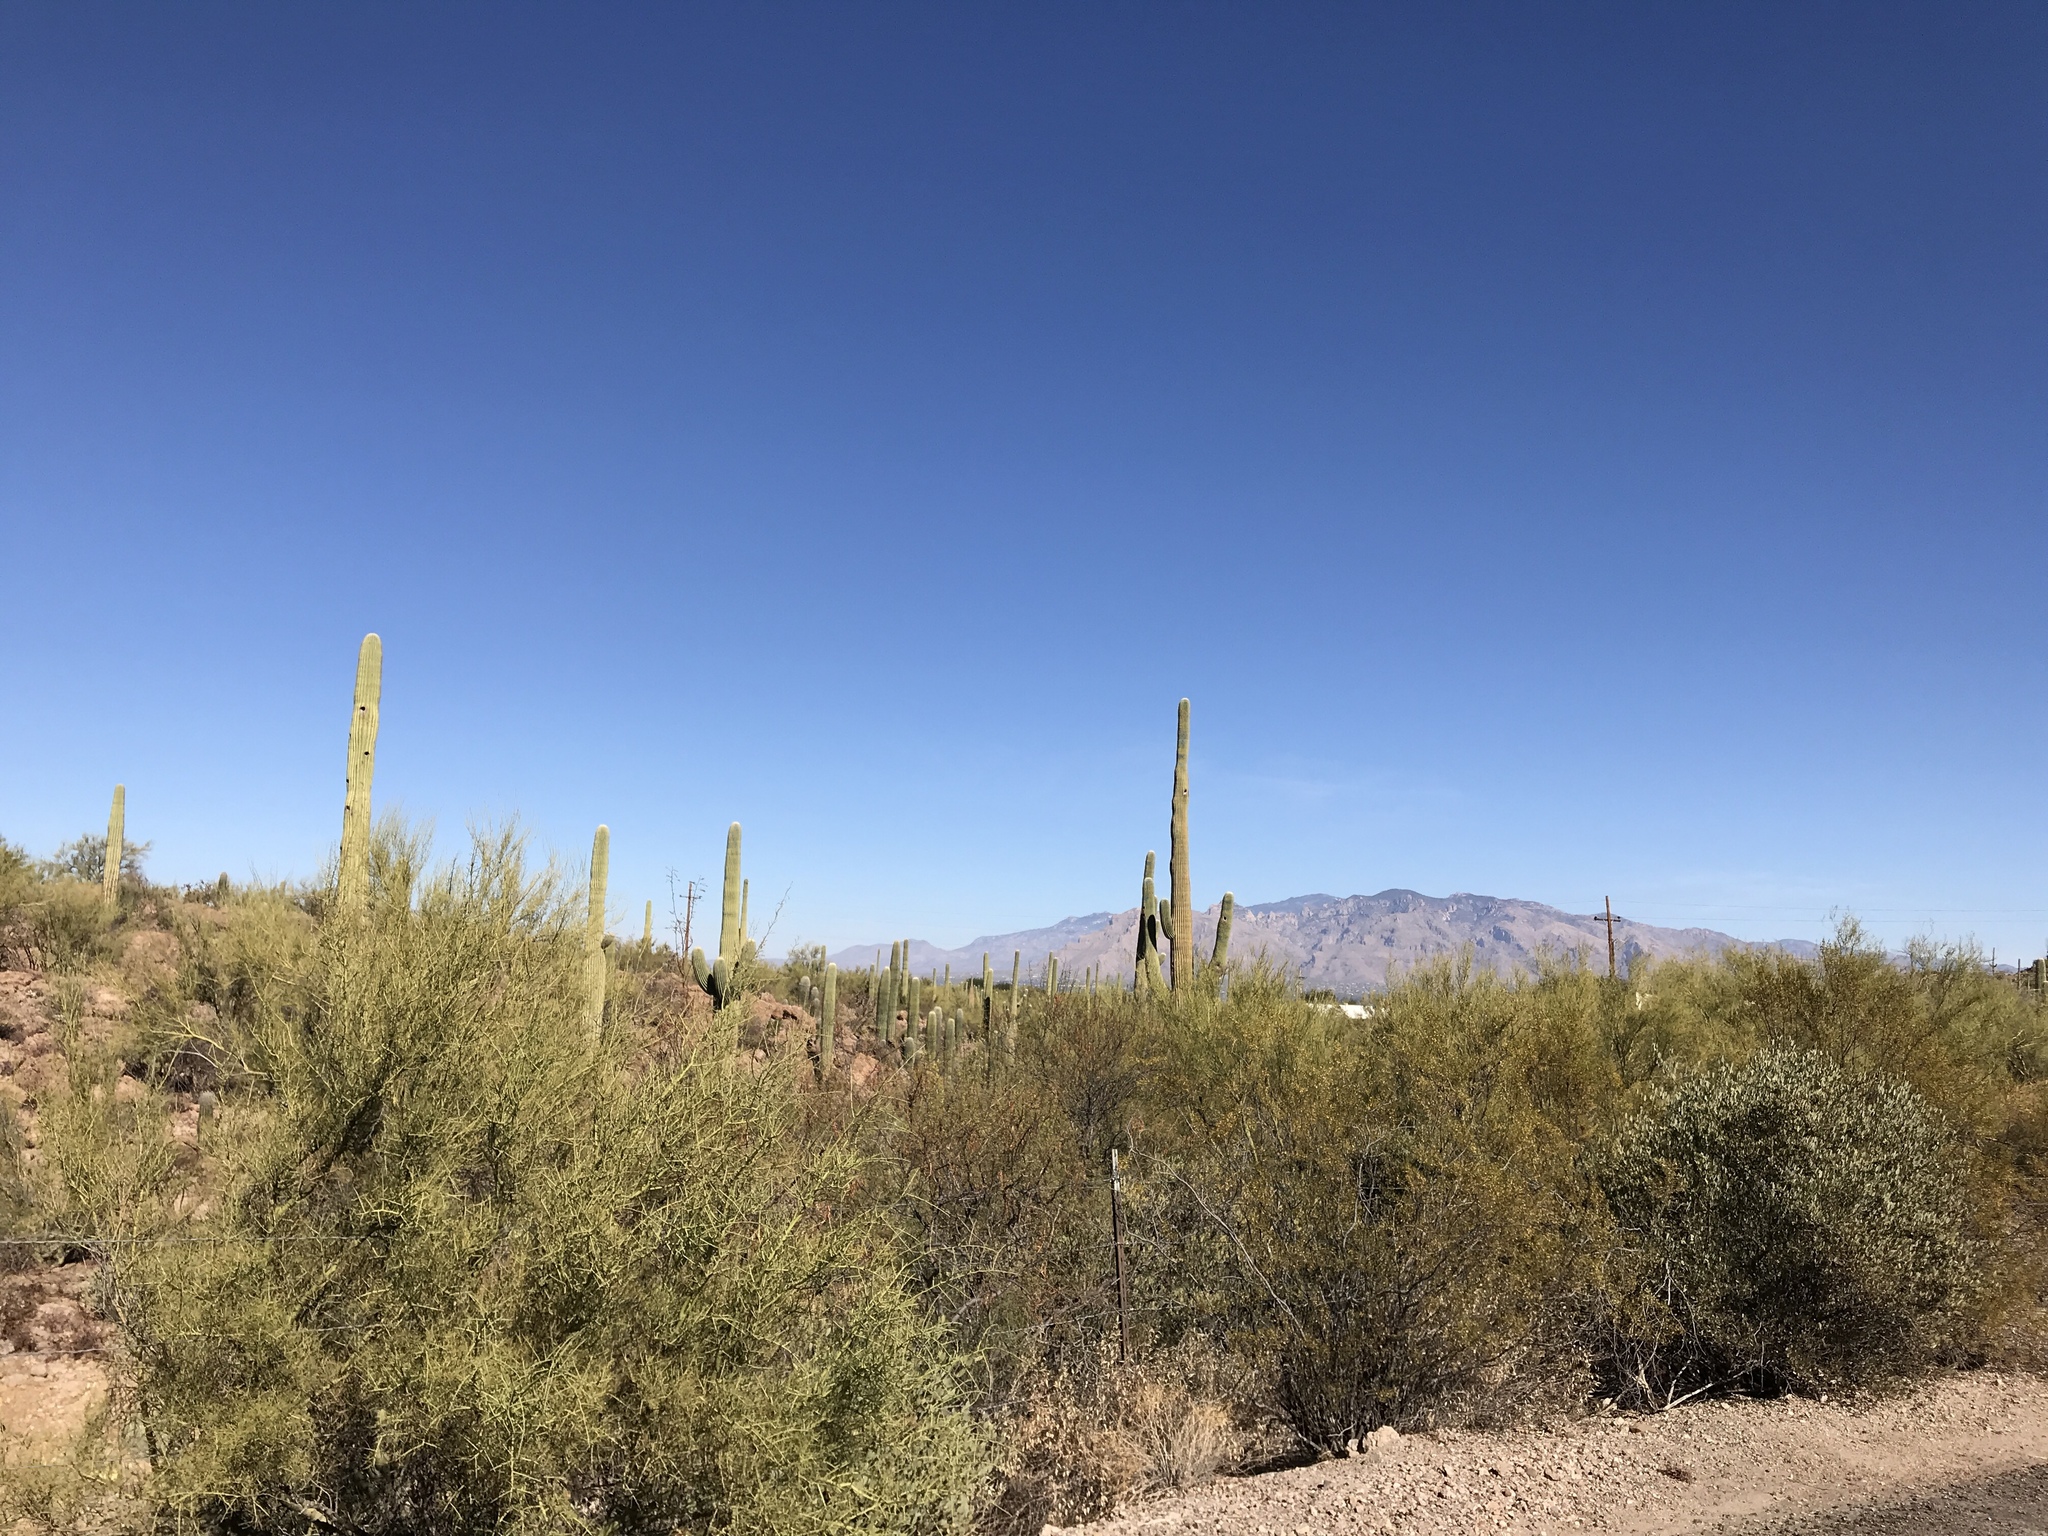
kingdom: Plantae
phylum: Tracheophyta
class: Magnoliopsida
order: Caryophyllales
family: Cactaceae
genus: Carnegiea
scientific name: Carnegiea gigantea
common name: Saguaro
